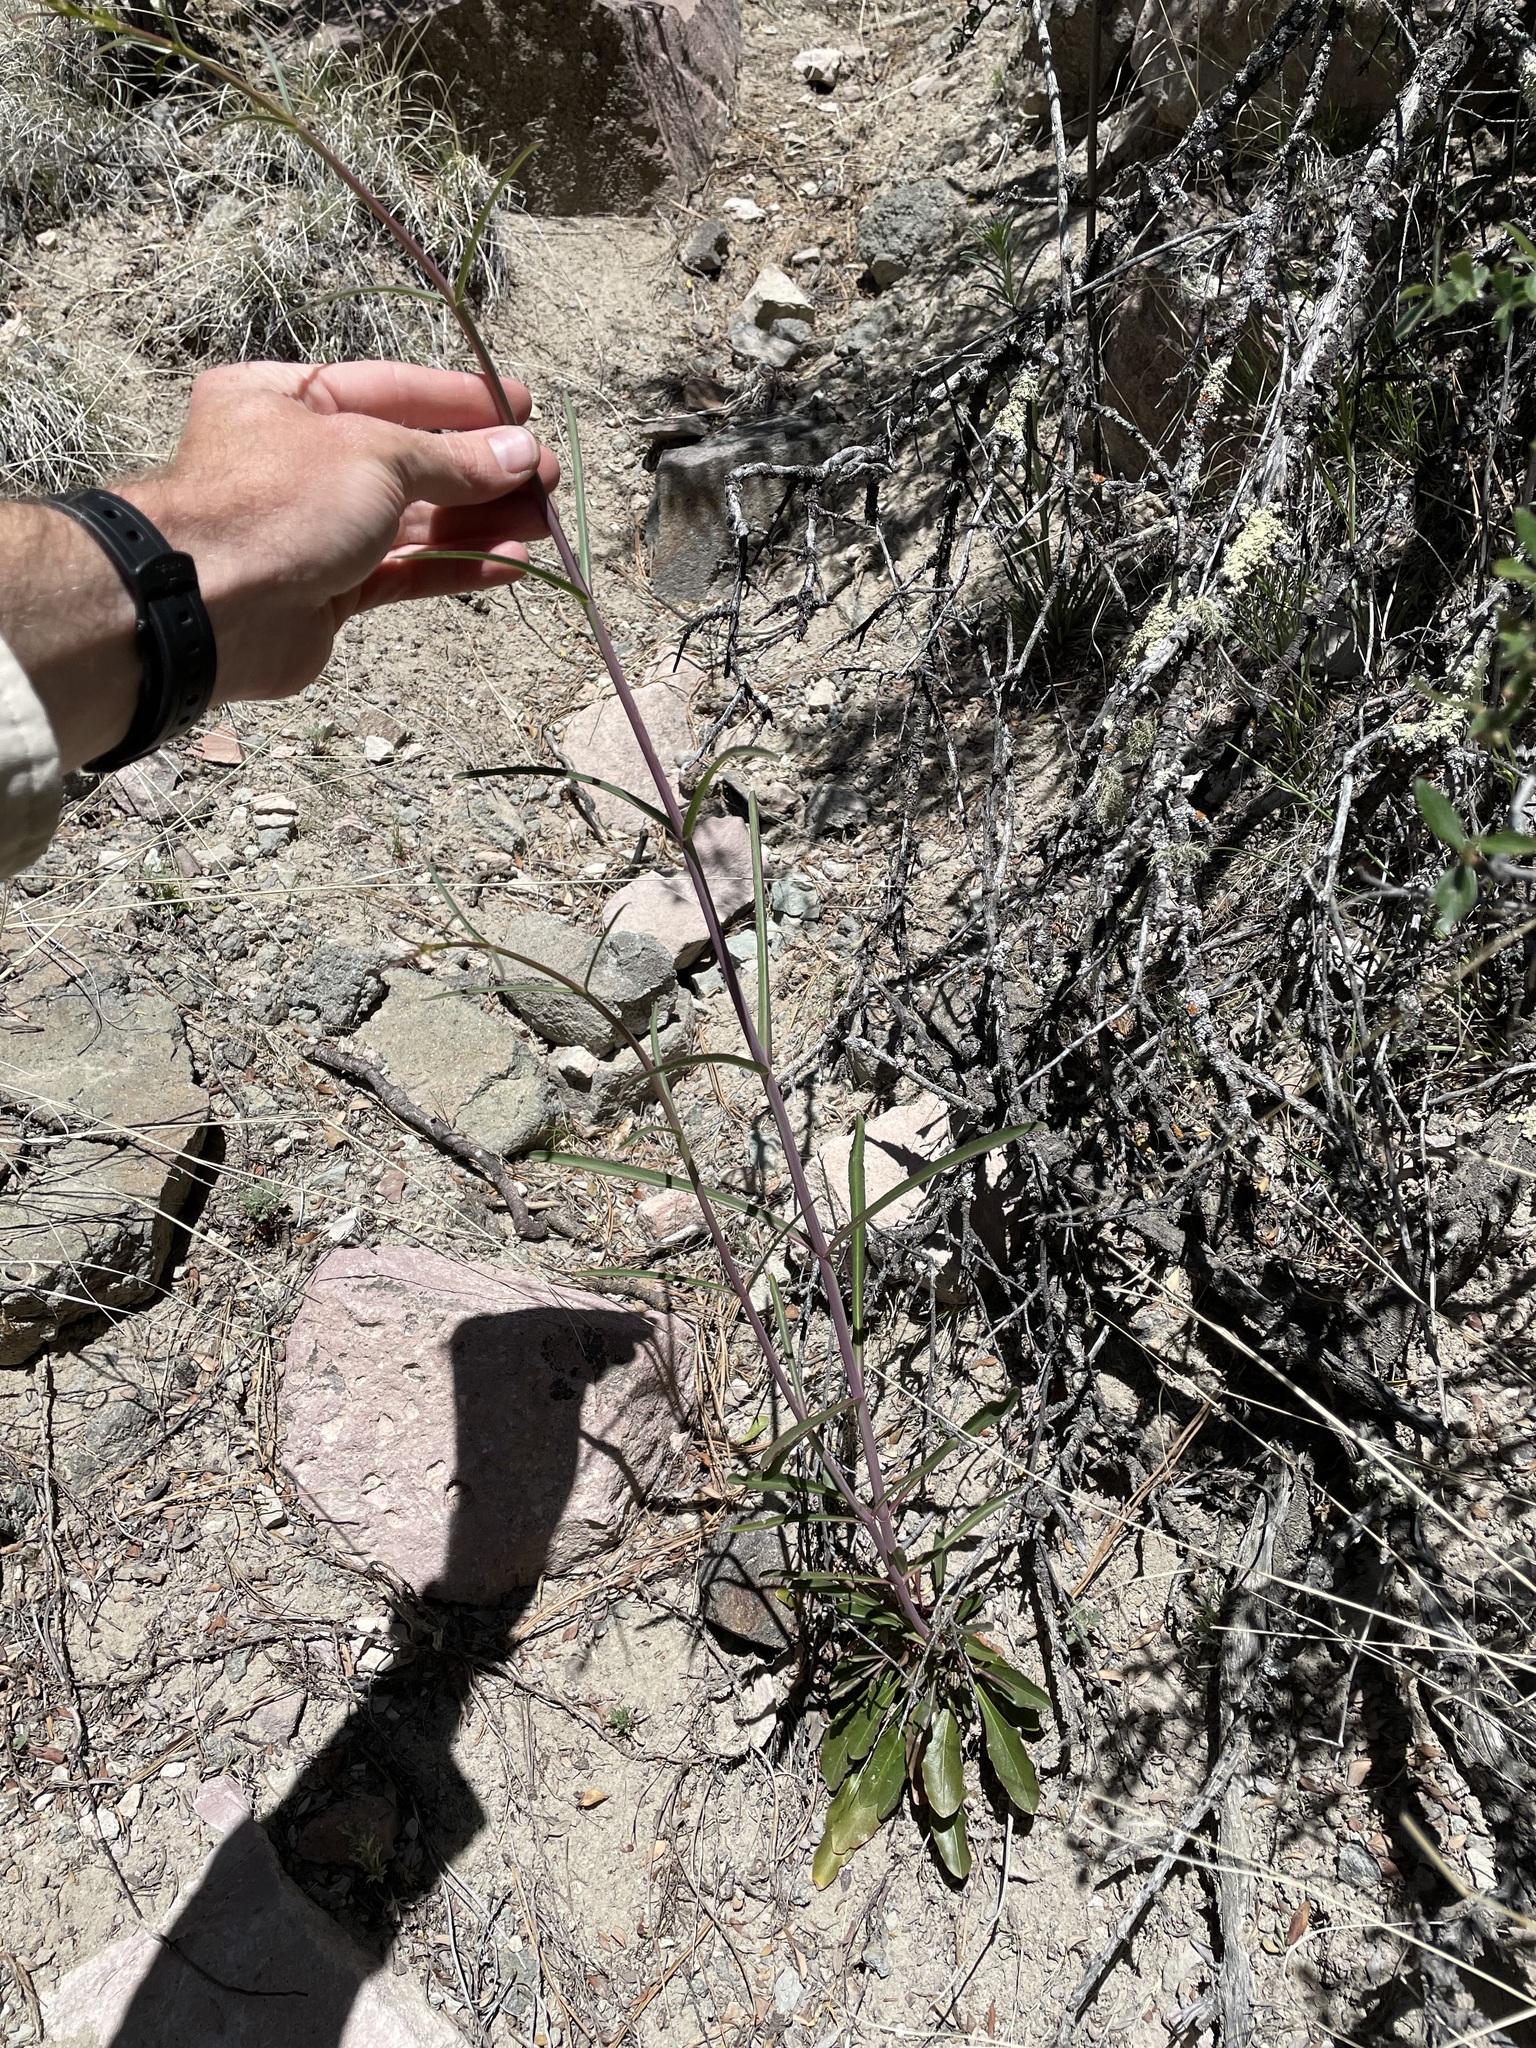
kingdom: Plantae
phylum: Tracheophyta
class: Magnoliopsida
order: Lamiales
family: Plantaginaceae
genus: Penstemon
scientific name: Penstemon barbatus
